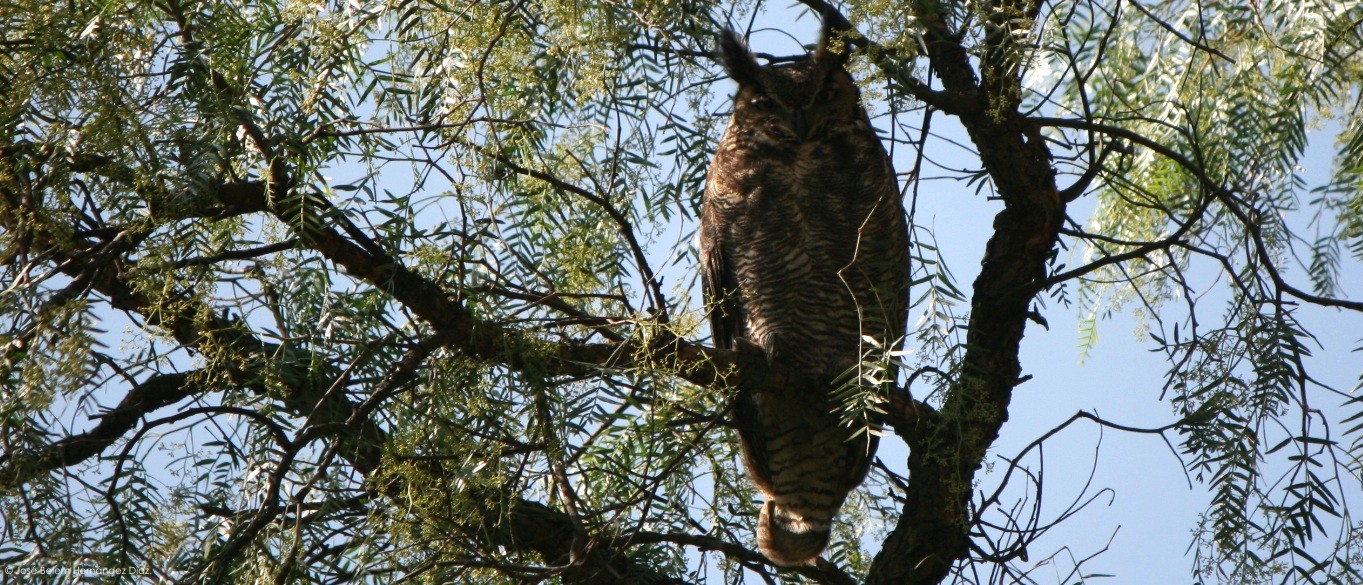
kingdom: Animalia
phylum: Chordata
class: Aves
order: Strigiformes
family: Strigidae
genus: Bubo
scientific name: Bubo virginianus
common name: Great horned owl
